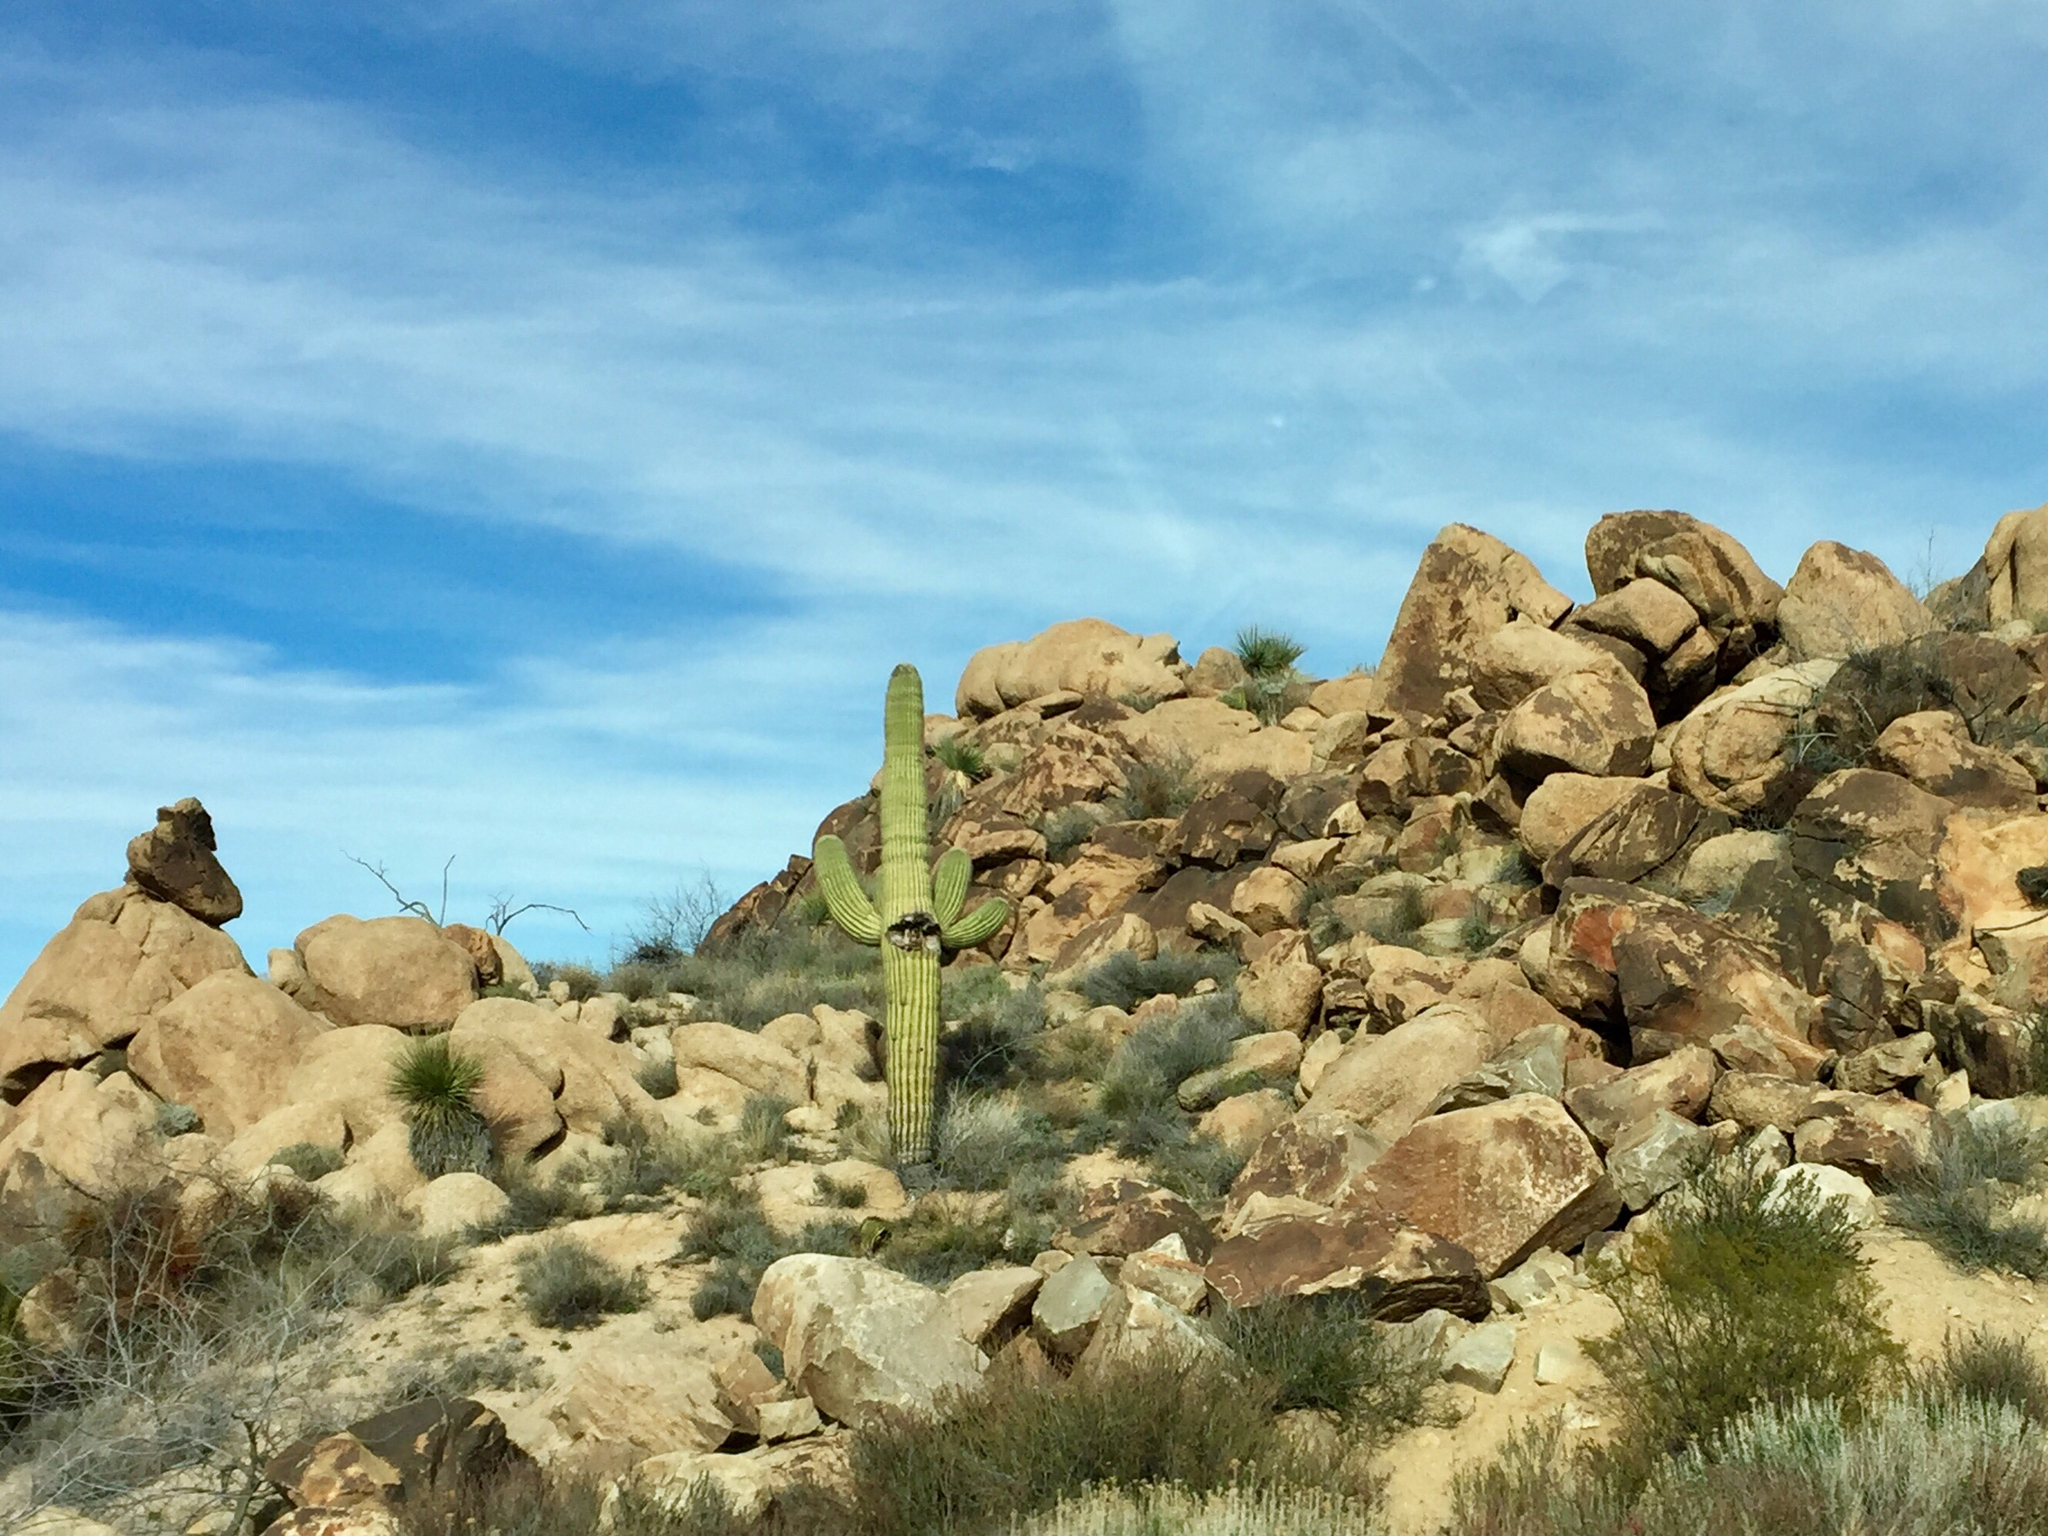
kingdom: Plantae
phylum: Tracheophyta
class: Magnoliopsida
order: Caryophyllales
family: Cactaceae
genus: Carnegiea
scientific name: Carnegiea gigantea
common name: Saguaro
